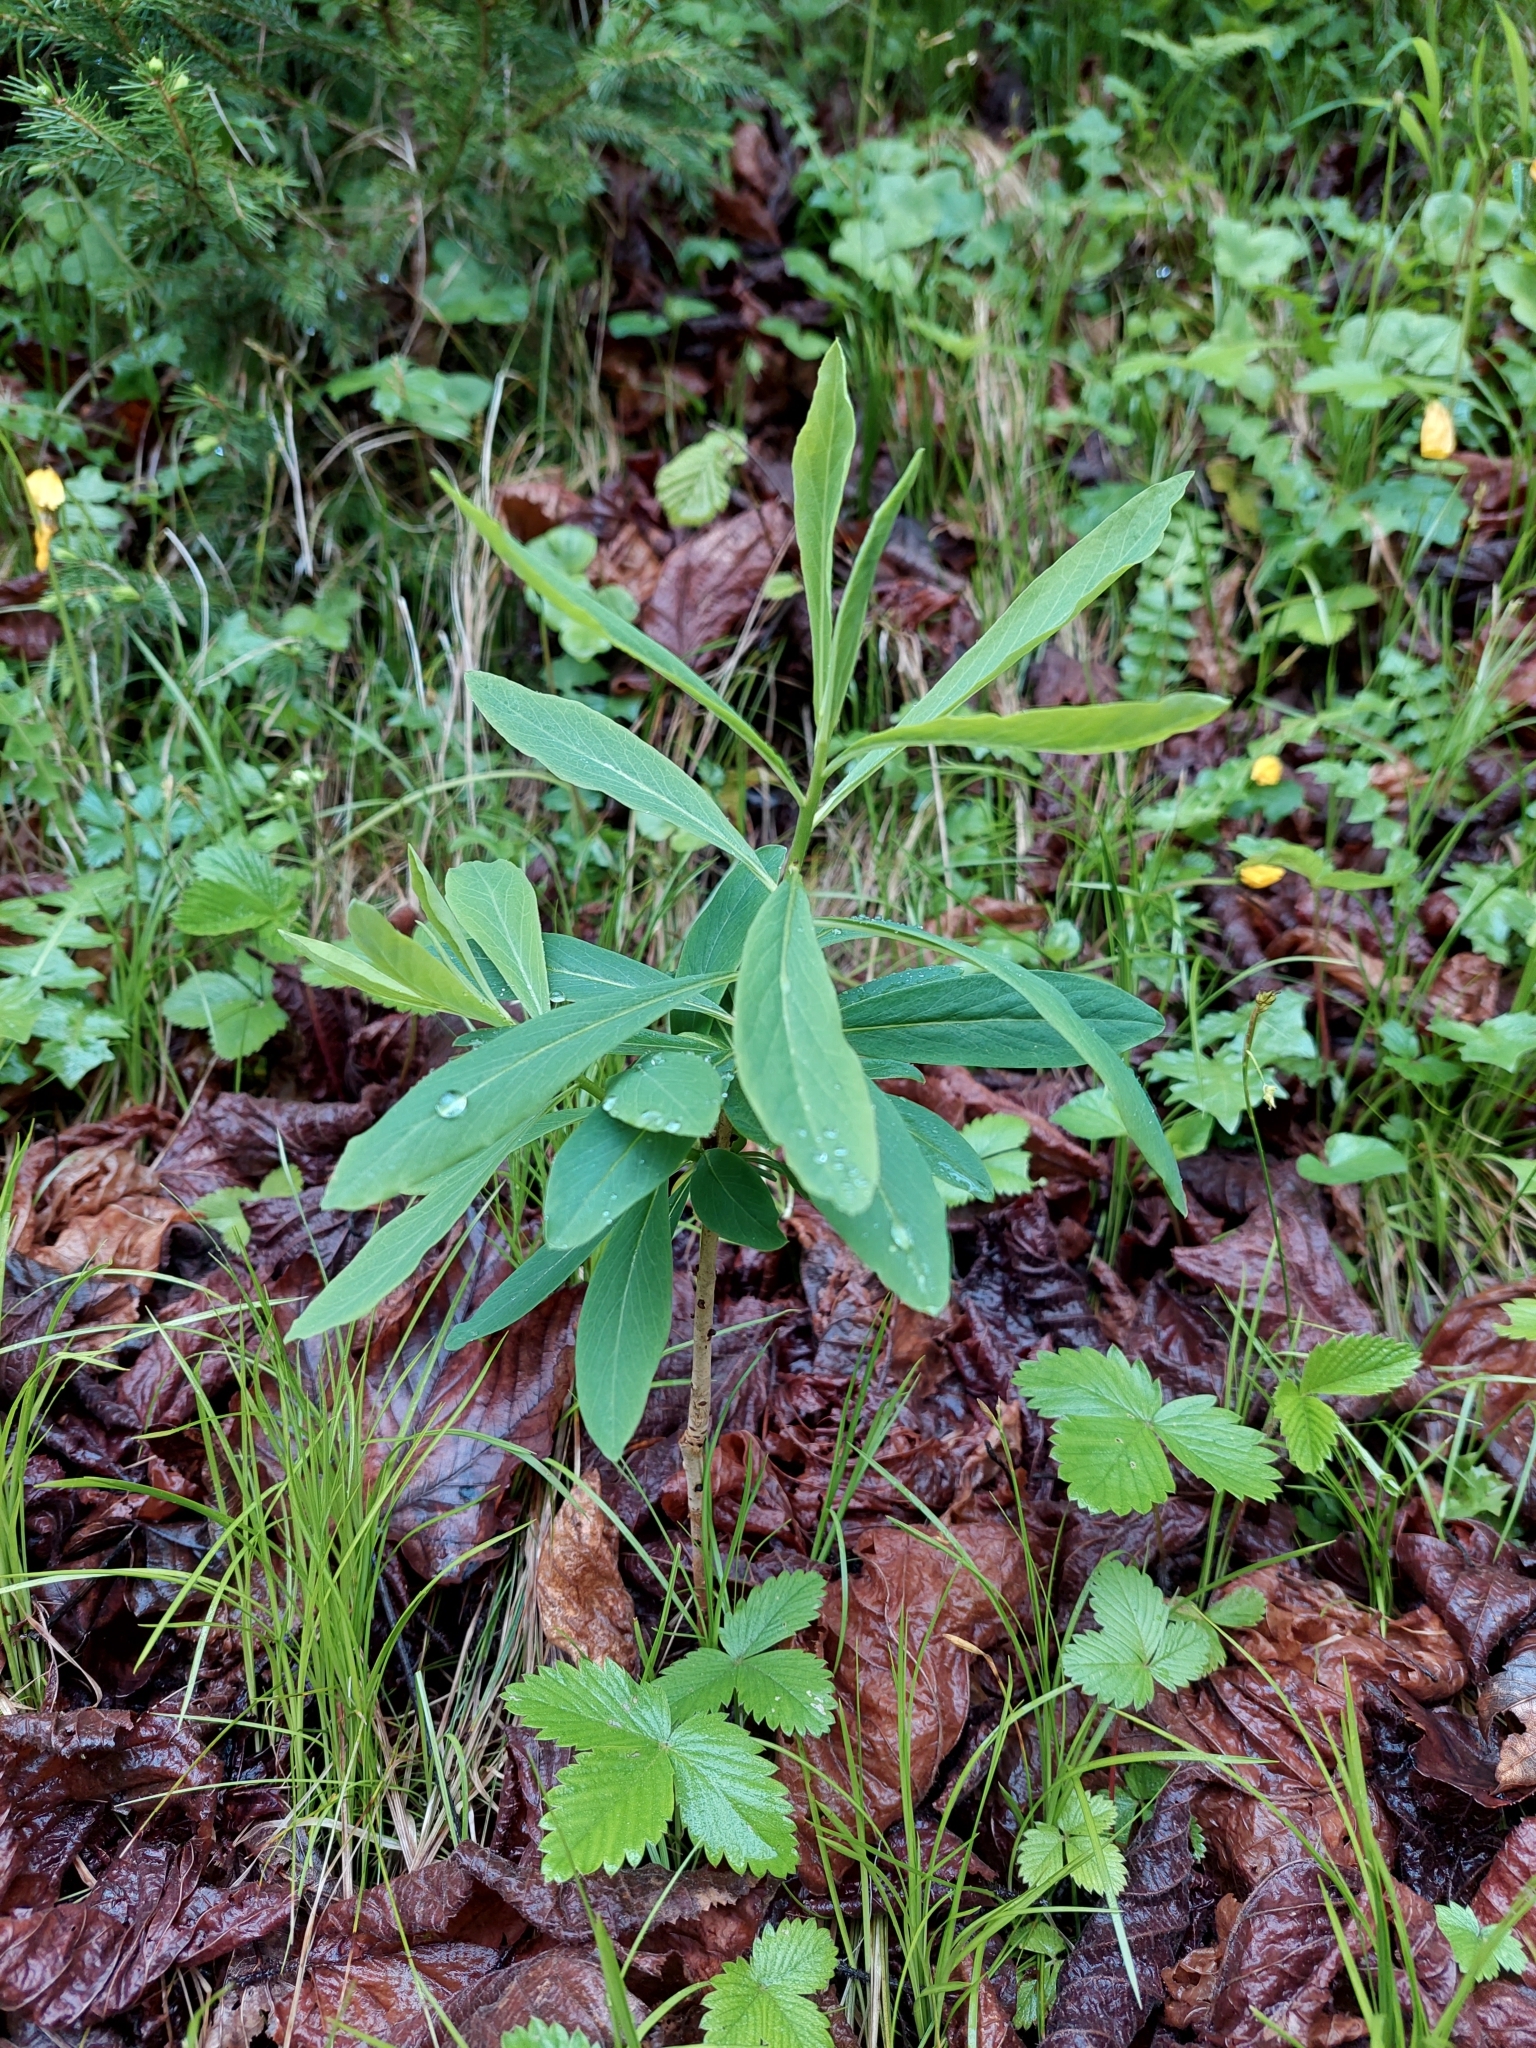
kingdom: Plantae
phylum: Tracheophyta
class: Magnoliopsida
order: Malvales
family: Thymelaeaceae
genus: Daphne
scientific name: Daphne mezereum
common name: Mezereon
